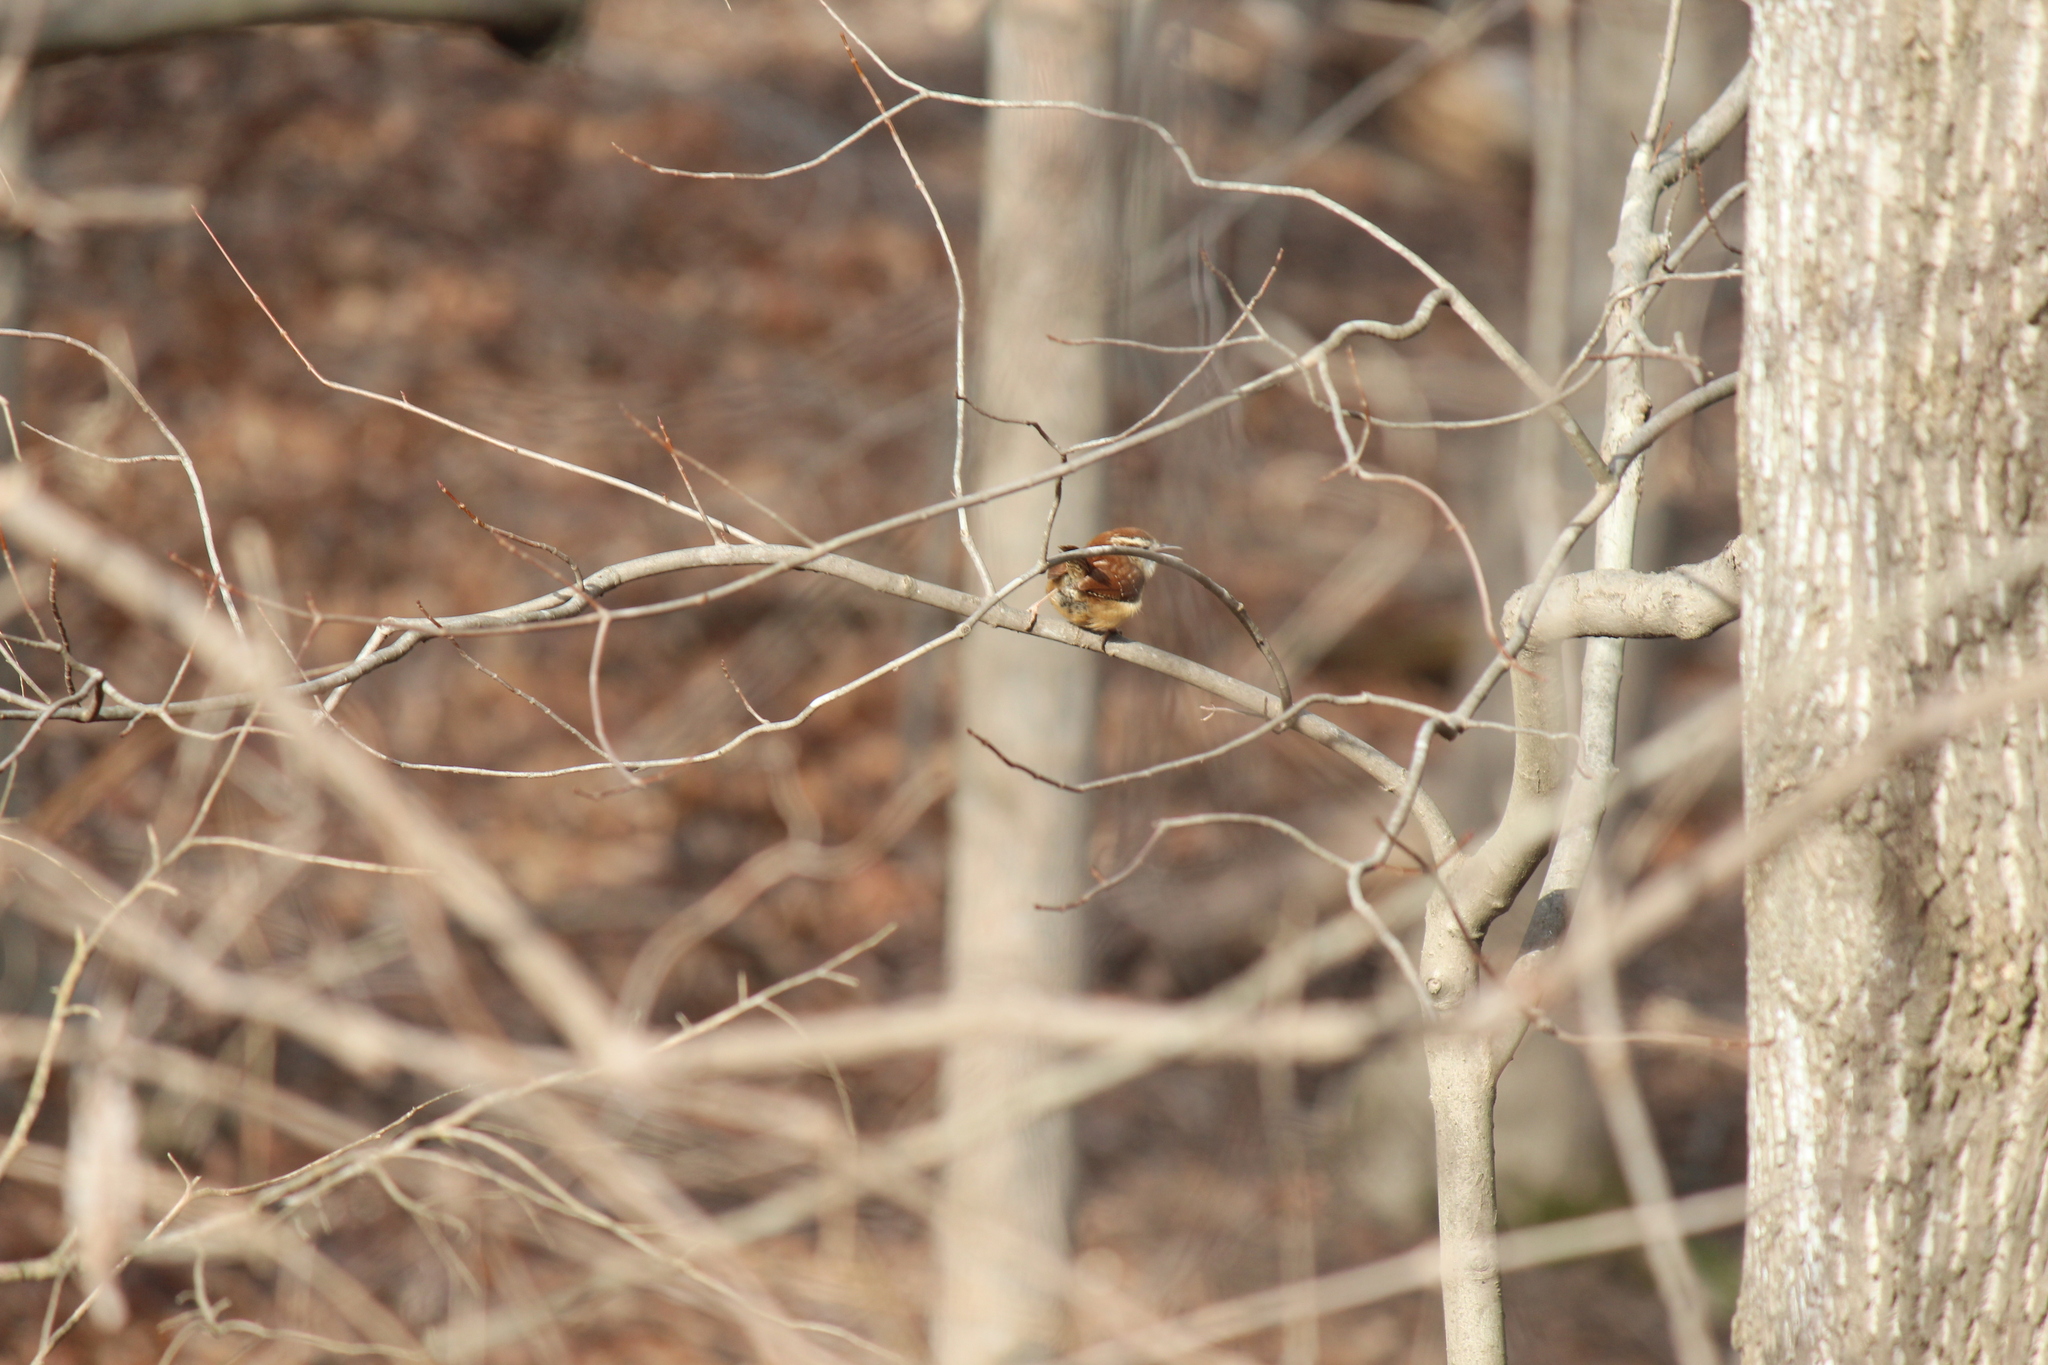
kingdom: Animalia
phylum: Chordata
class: Aves
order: Passeriformes
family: Troglodytidae
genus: Thryothorus
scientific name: Thryothorus ludovicianus
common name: Carolina wren
